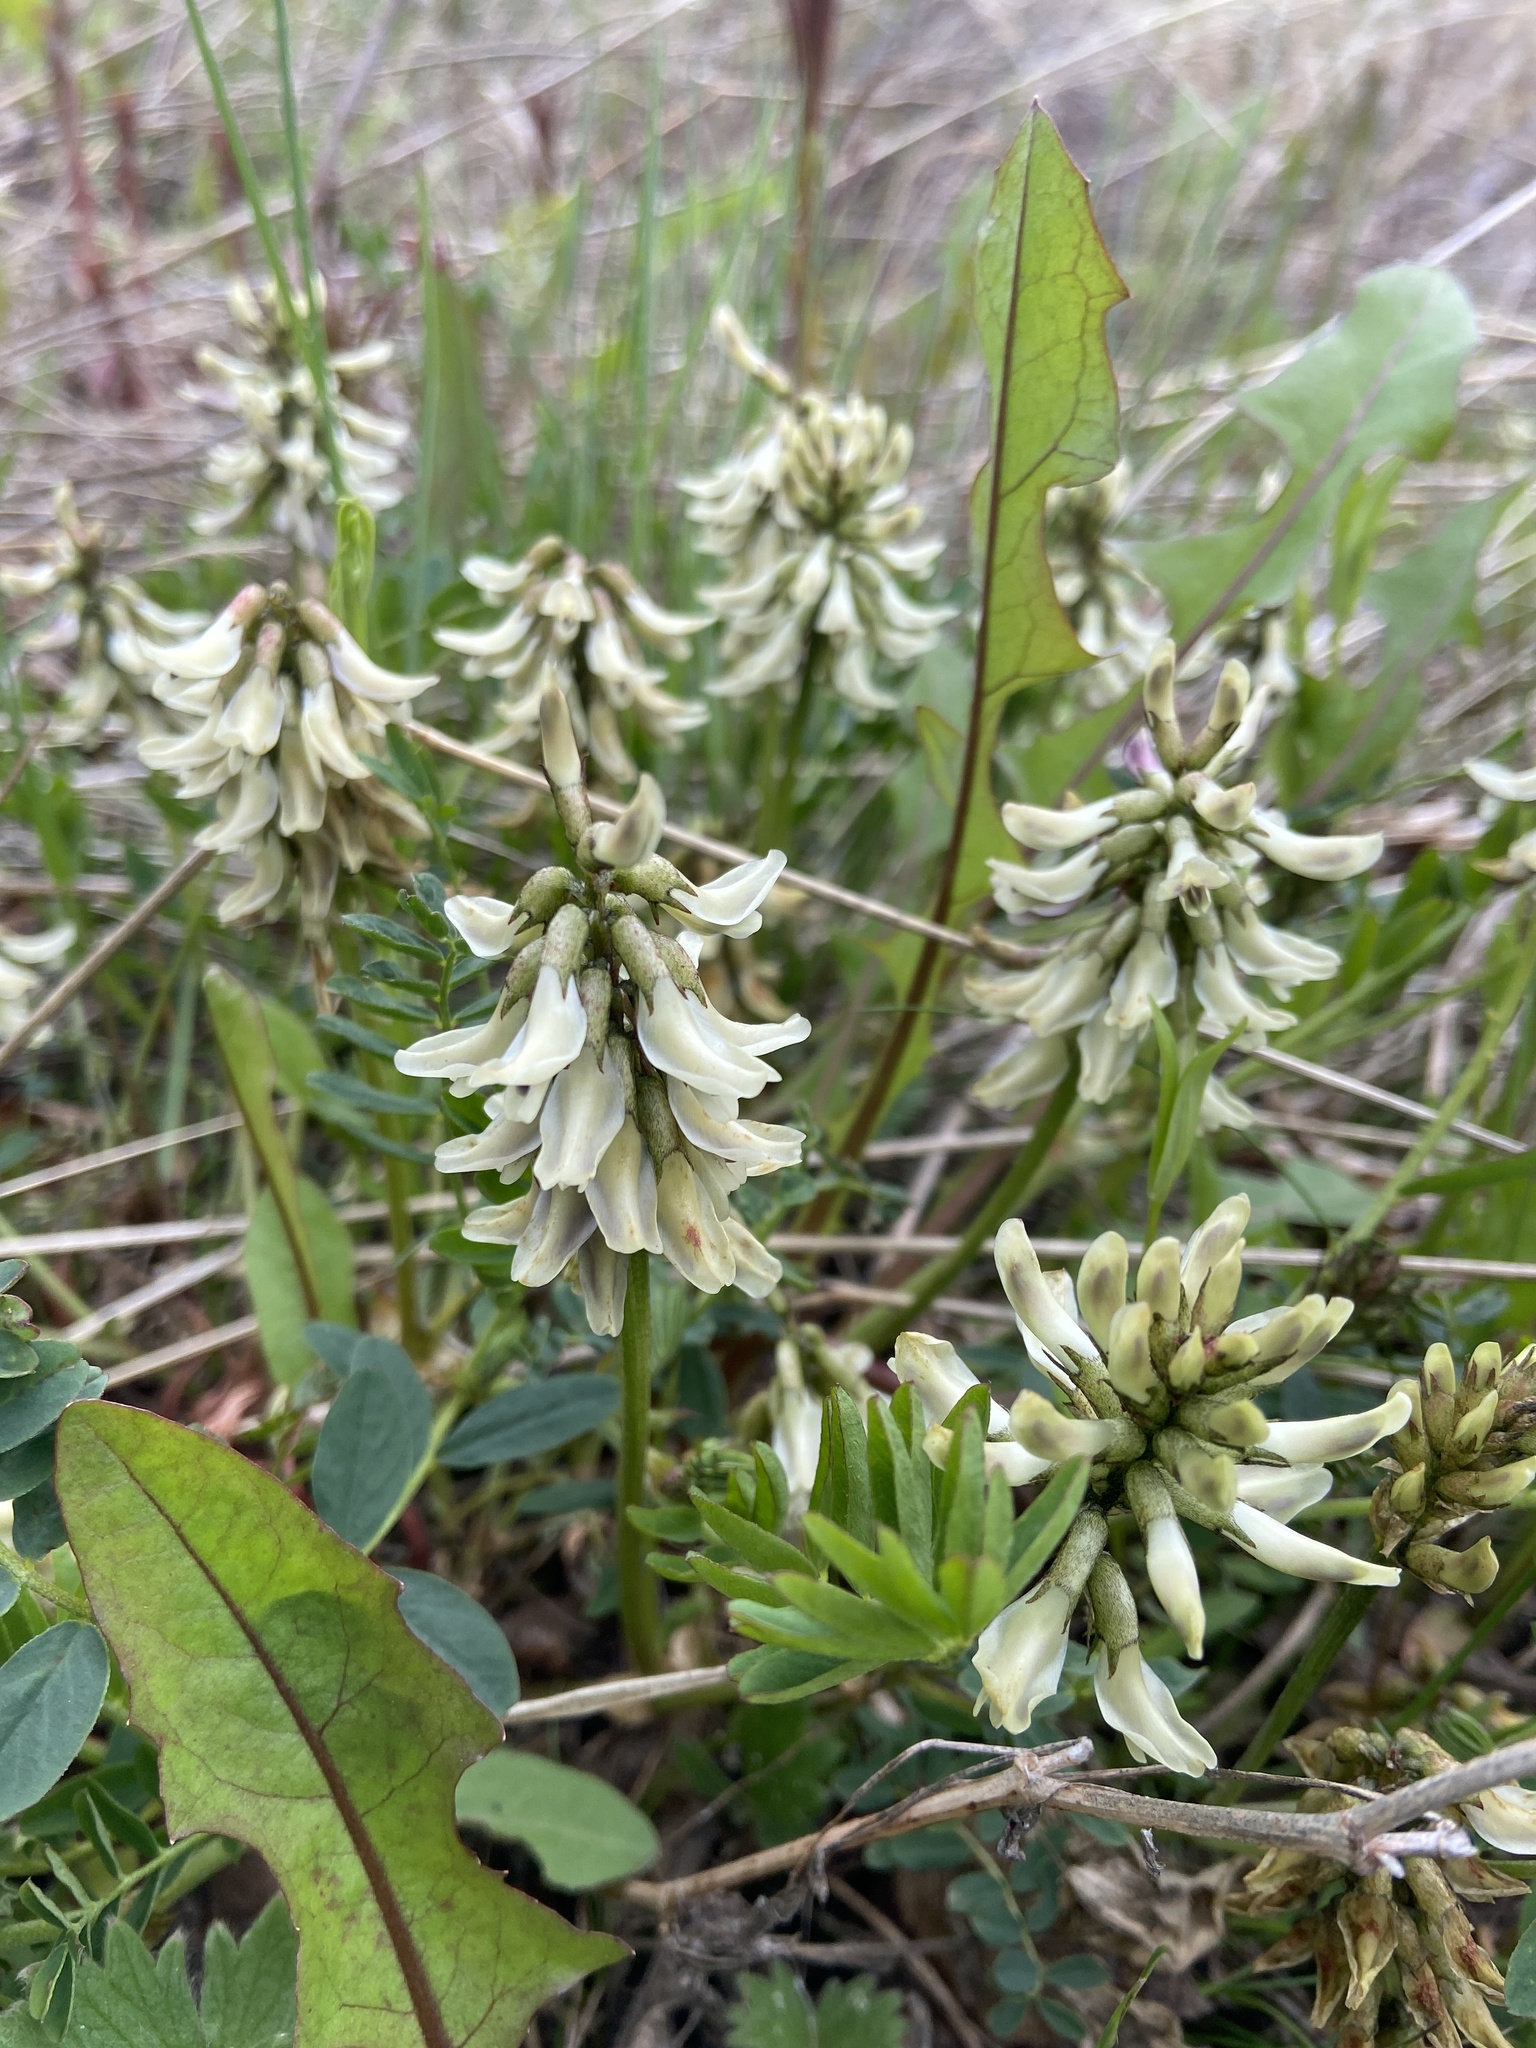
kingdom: Plantae
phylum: Tracheophyta
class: Magnoliopsida
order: Fabales
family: Fabaceae
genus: Astragalus
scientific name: Astragalus schelichowii
